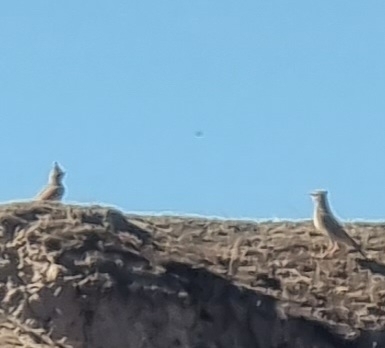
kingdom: Animalia
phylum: Chordata
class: Aves
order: Passeriformes
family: Alaudidae
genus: Galerida
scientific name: Galerida cristata
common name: Crested lark
